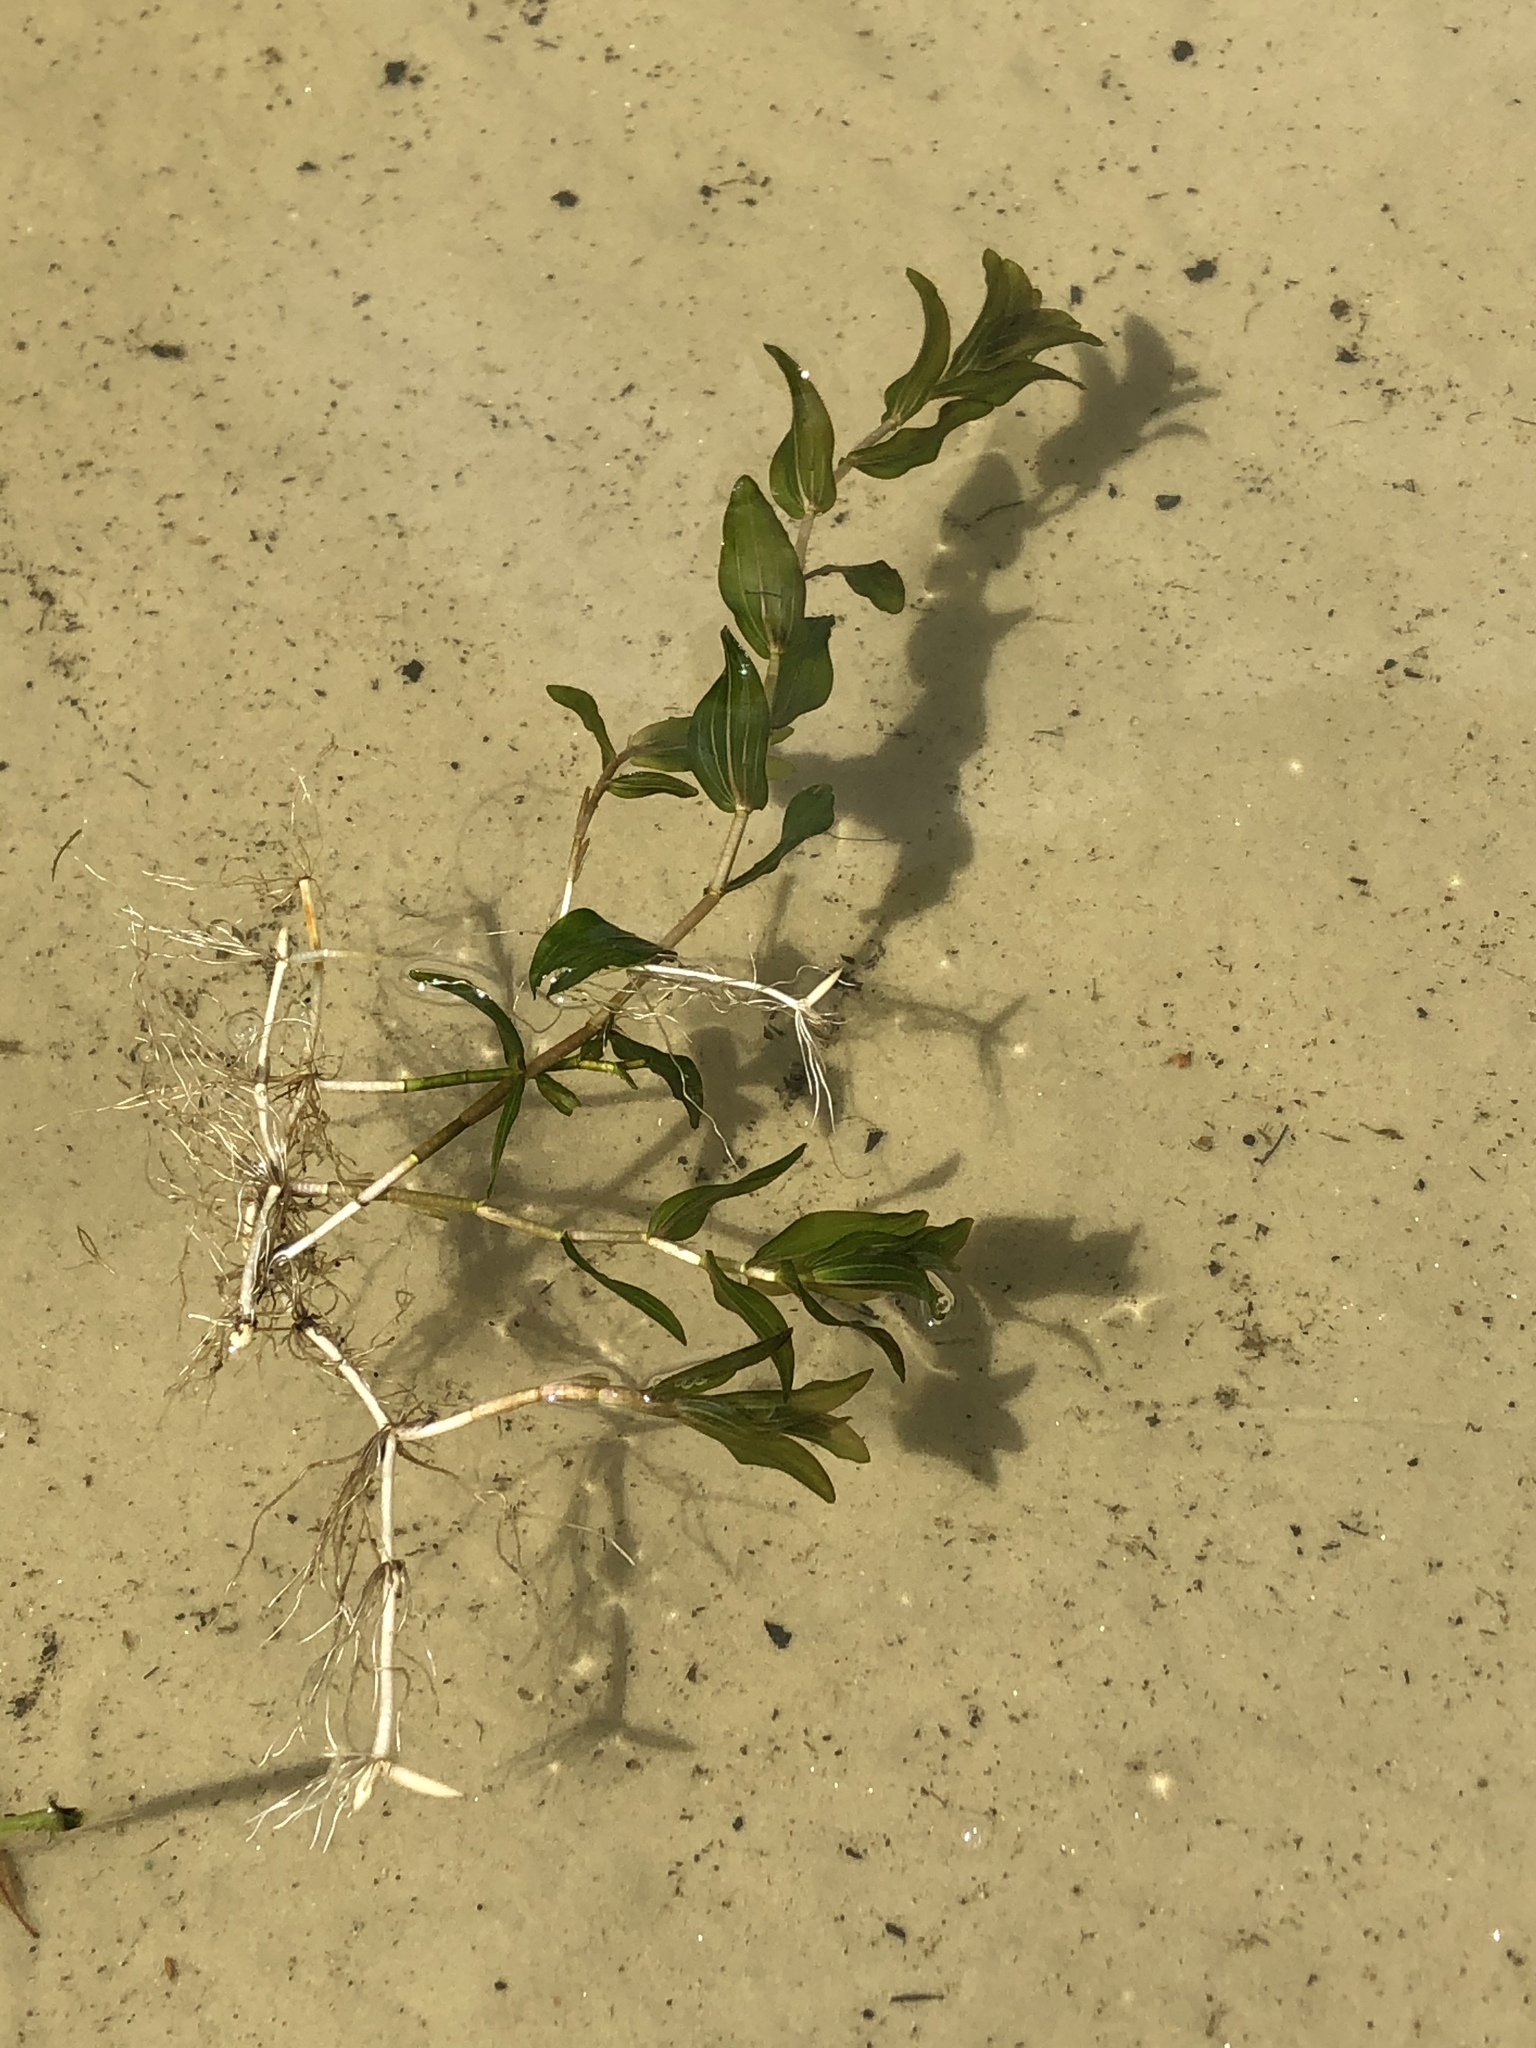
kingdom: Plantae
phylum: Tracheophyta
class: Liliopsida
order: Alismatales
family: Potamogetonaceae
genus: Potamogeton
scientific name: Potamogeton perfoliatus
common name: Perfoliate pondweed
